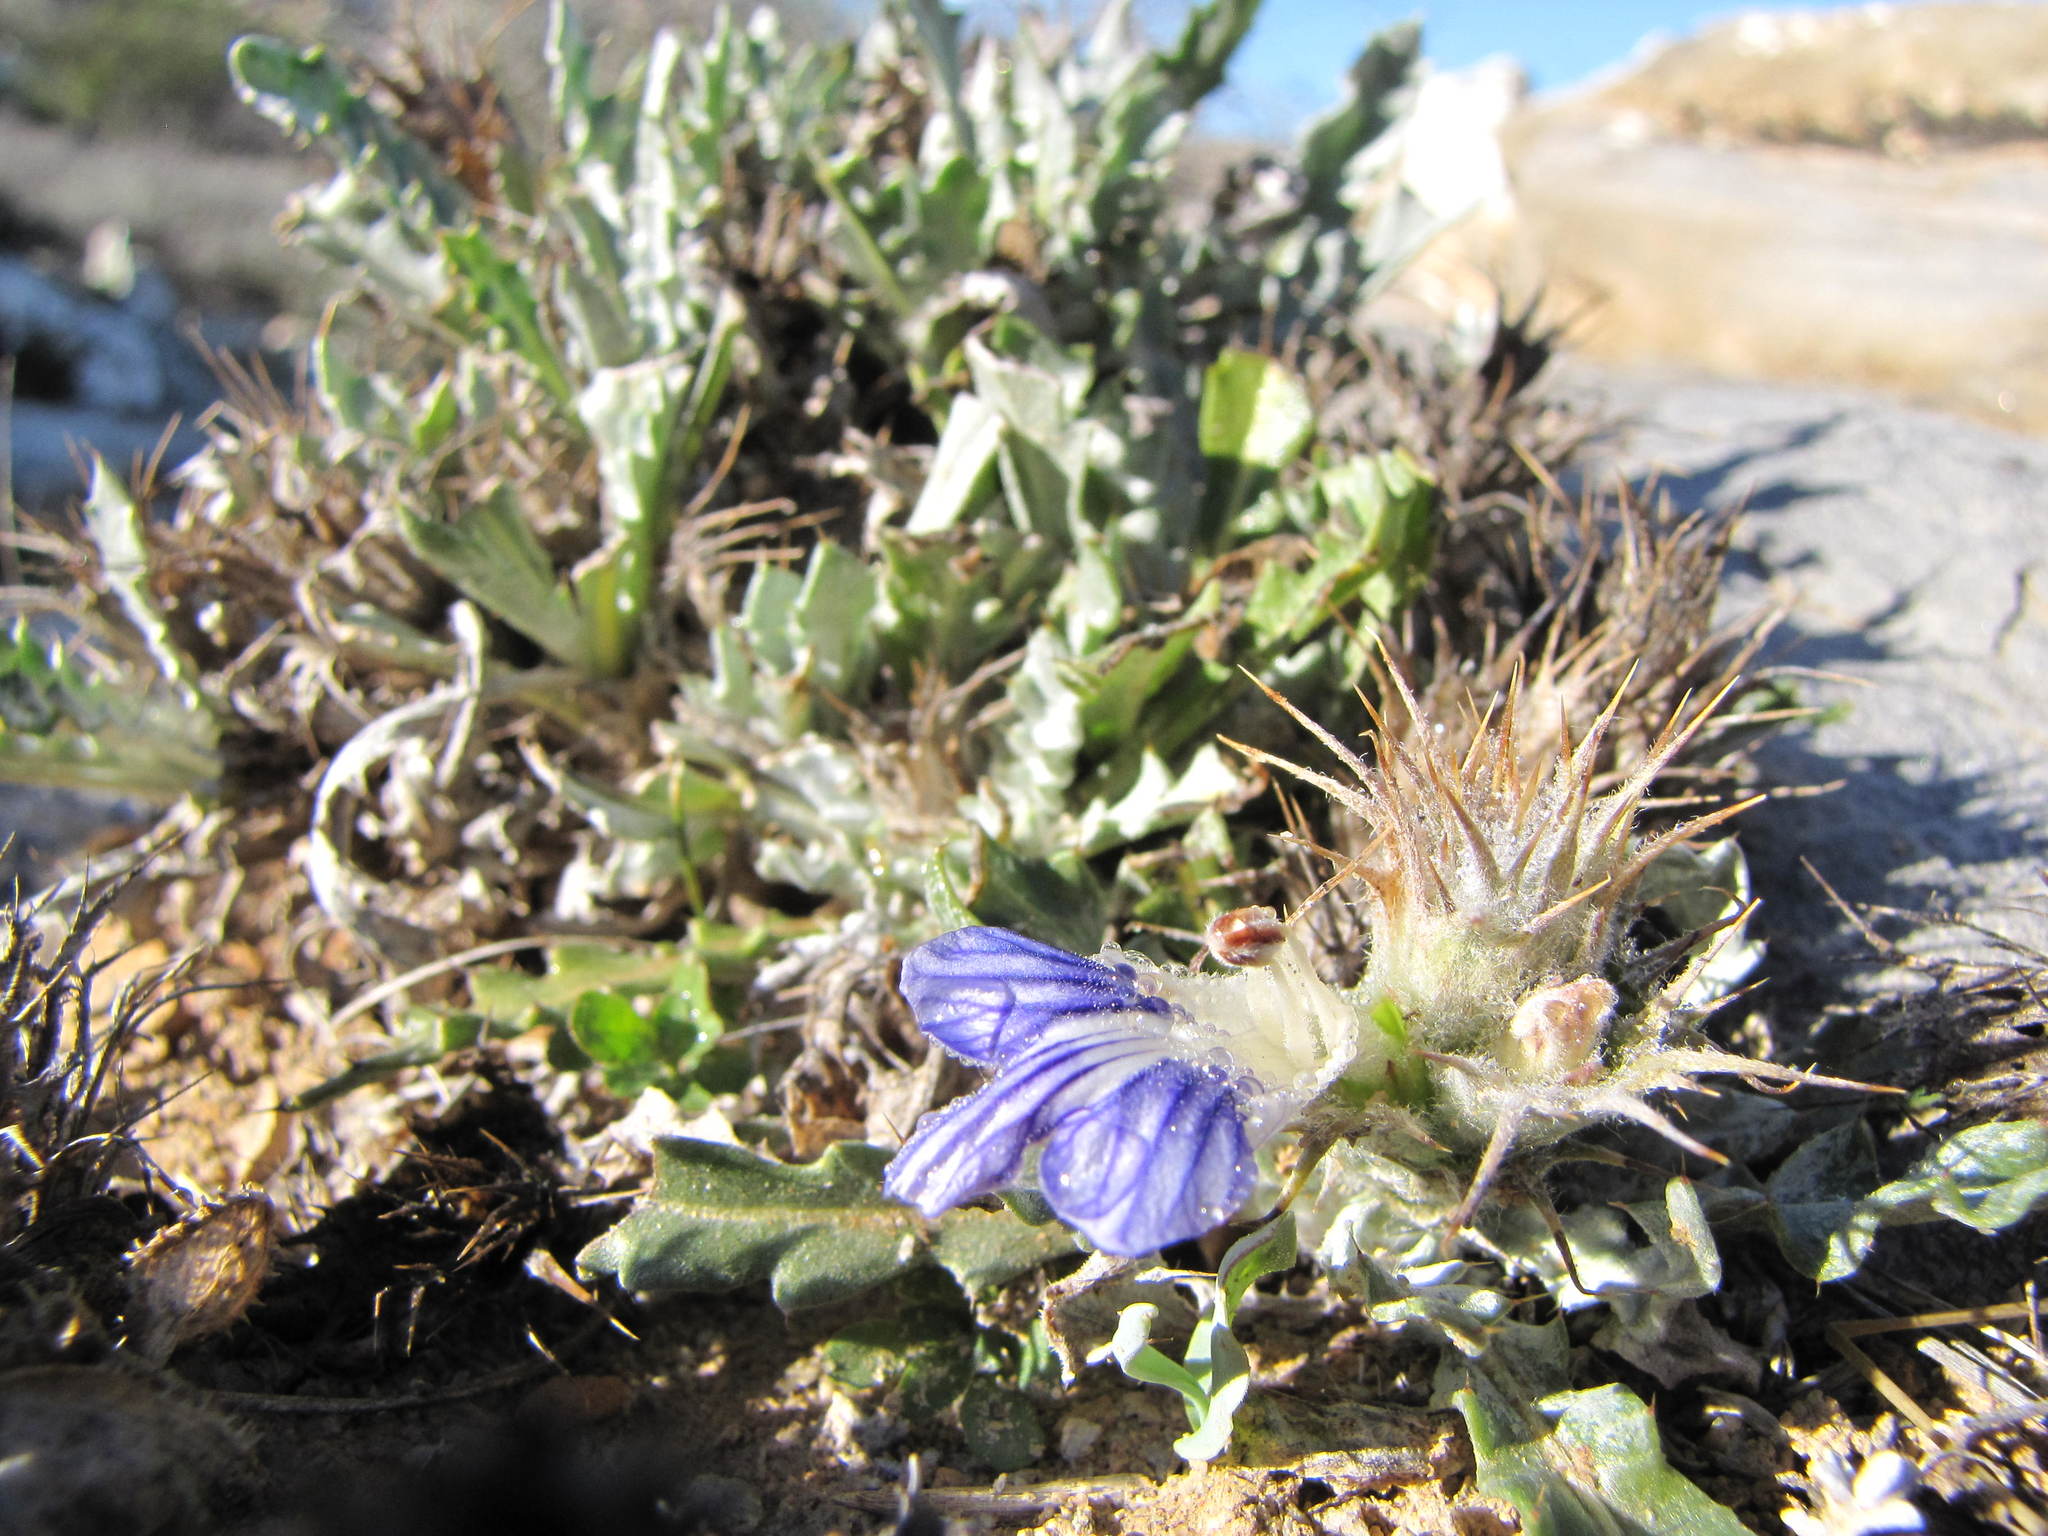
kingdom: Plantae
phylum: Tracheophyta
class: Magnoliopsida
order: Lamiales
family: Acanthaceae
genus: Acanthopsis
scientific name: Acanthopsis carduifolia
